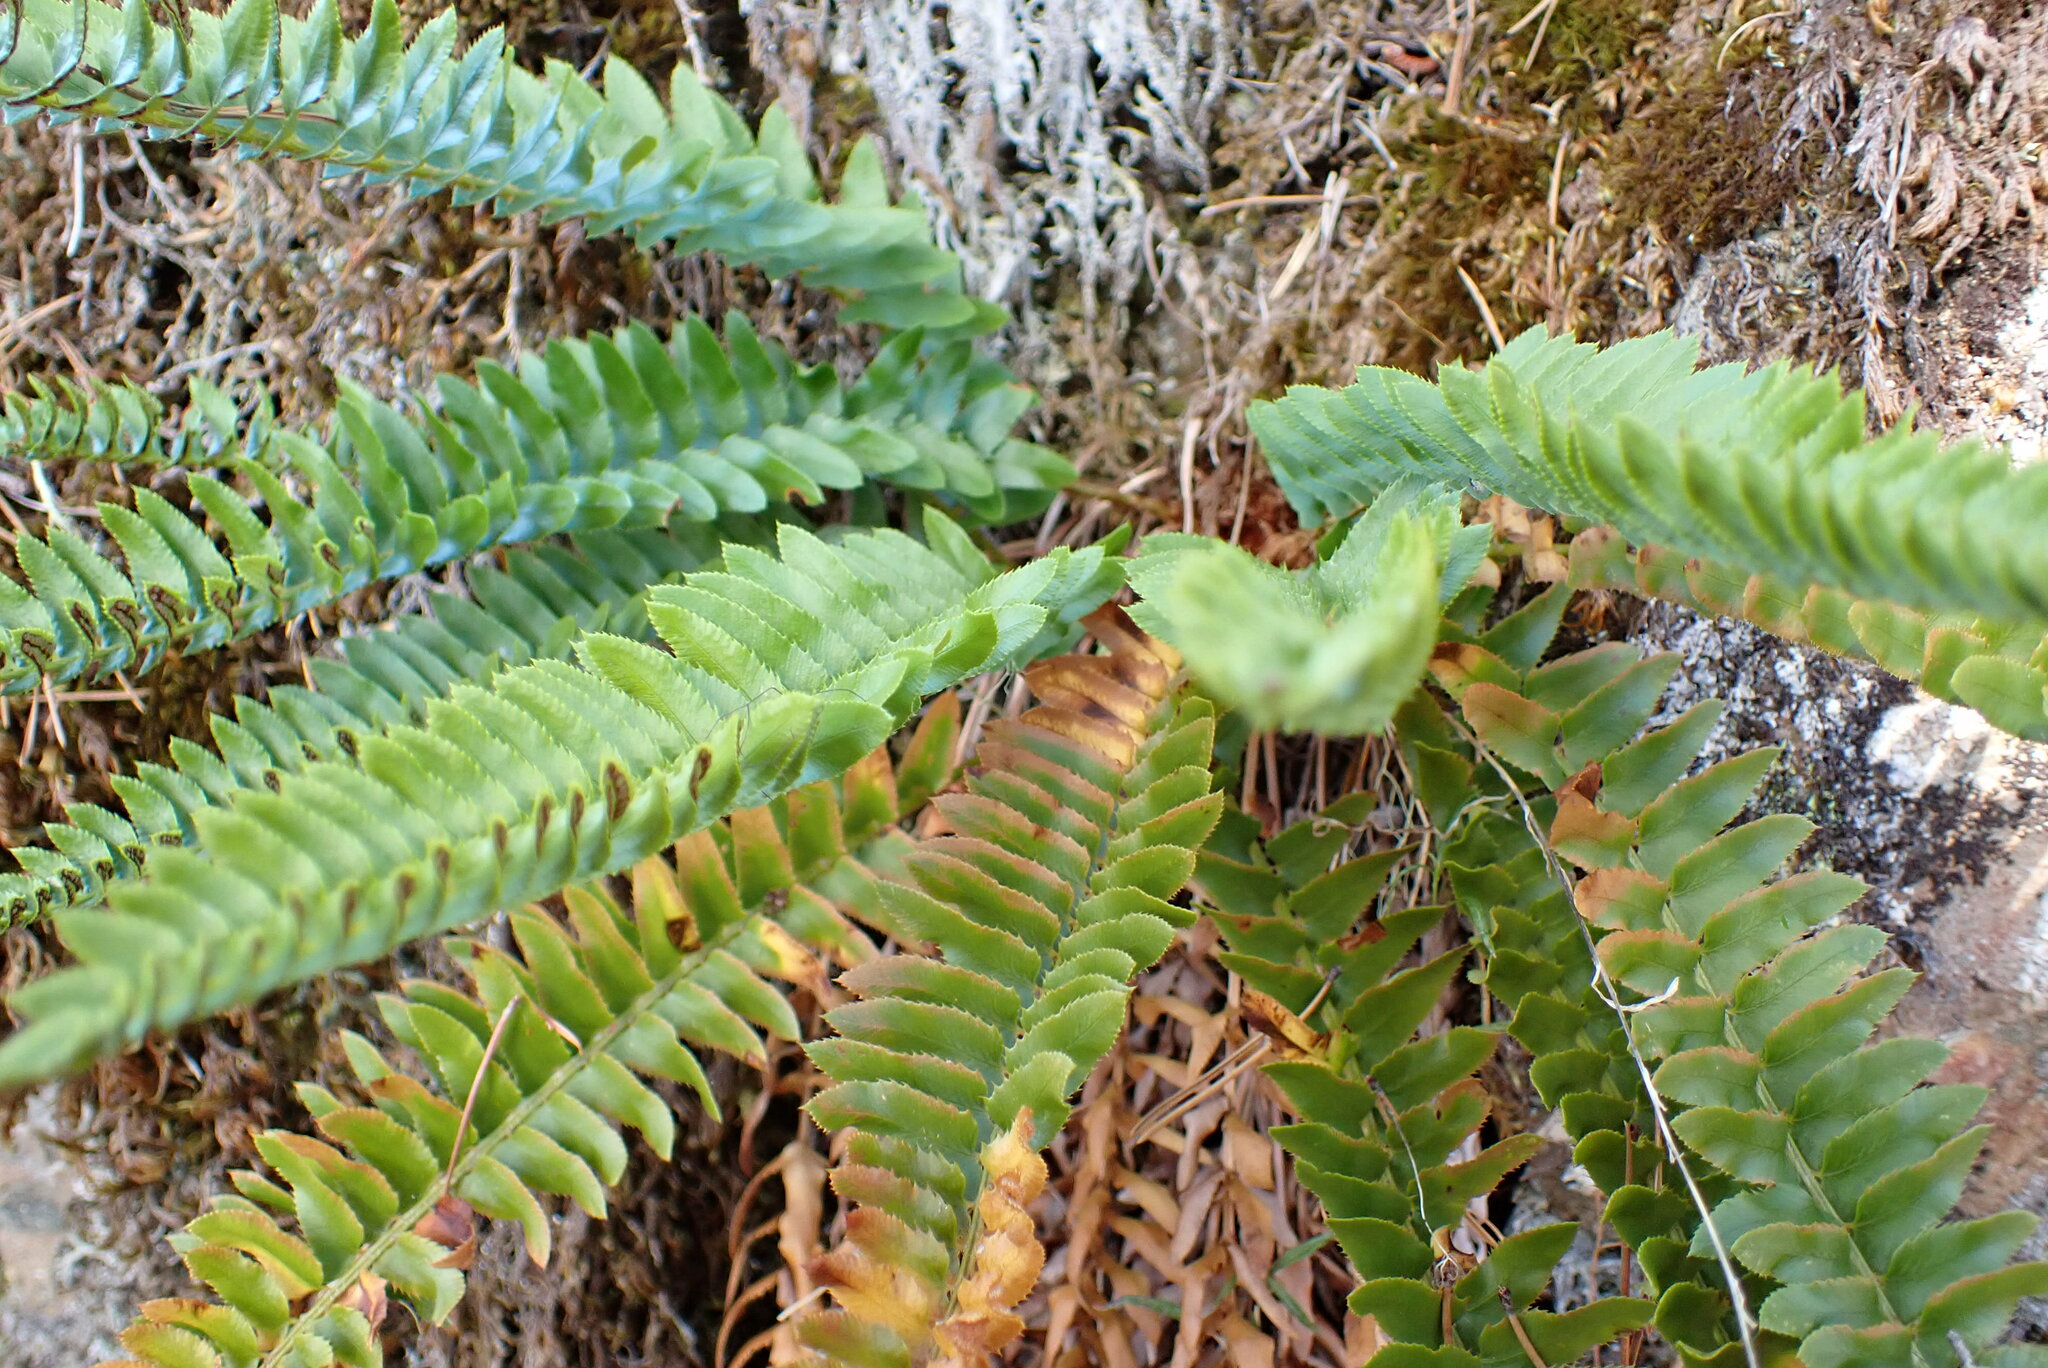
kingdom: Plantae
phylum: Tracheophyta
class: Polypodiopsida
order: Polypodiales
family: Dryopteridaceae
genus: Polystichum
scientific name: Polystichum imbricans
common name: Dwarf western sword fern
